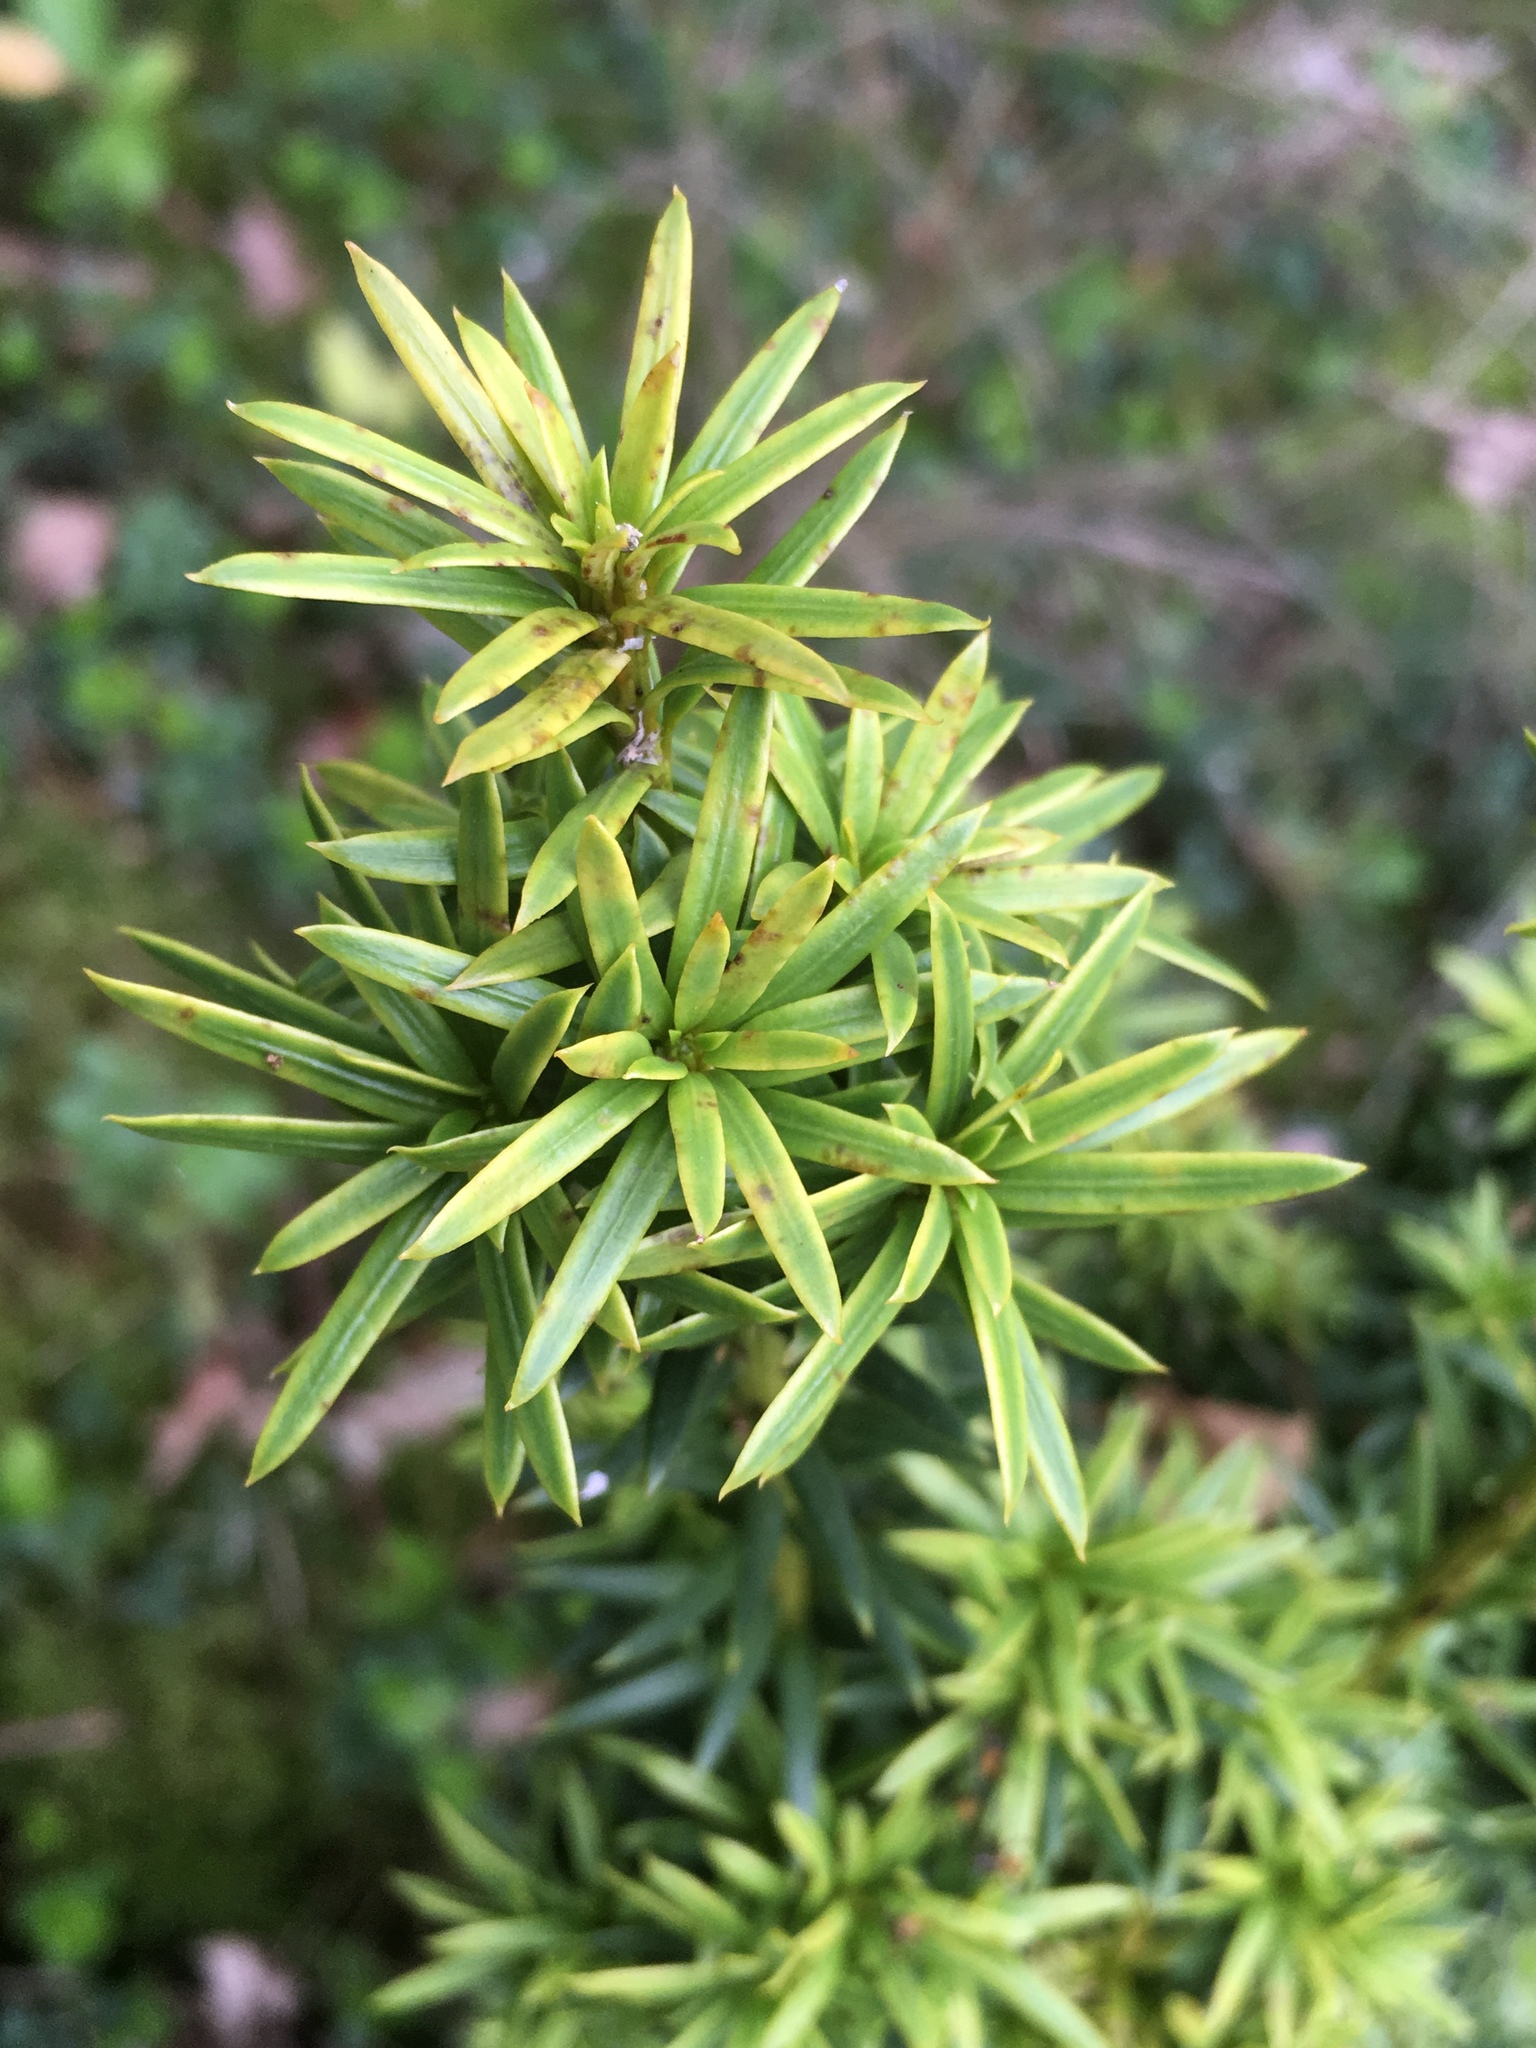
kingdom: Plantae
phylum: Tracheophyta
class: Pinopsida
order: Pinales
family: Taxaceae
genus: Taxus
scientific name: Taxus baccata
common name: Yew
